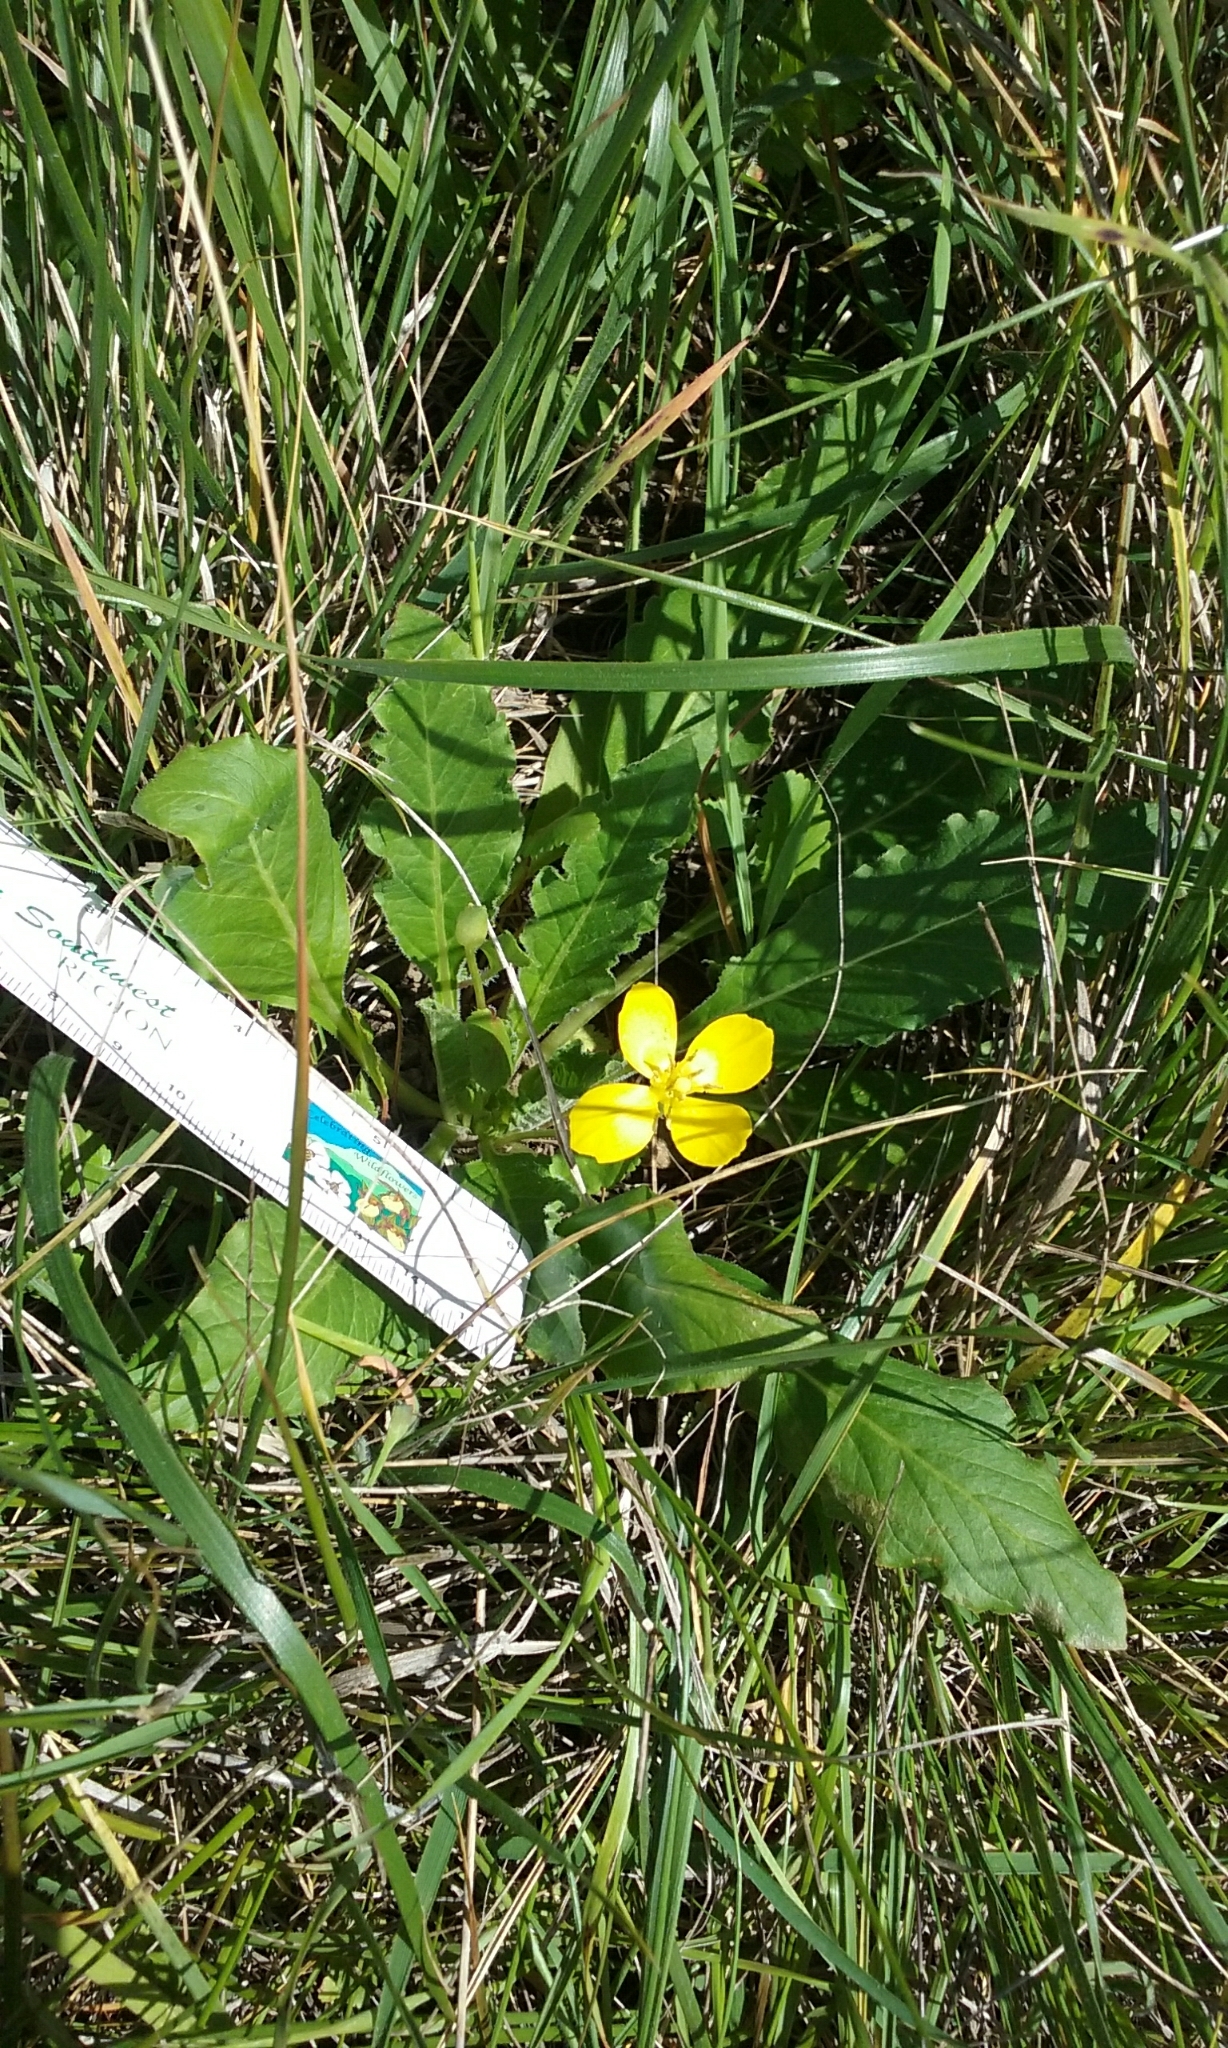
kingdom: Plantae
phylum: Tracheophyta
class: Magnoliopsida
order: Myrtales
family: Onagraceae
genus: Taraxia
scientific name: Taraxia ovata
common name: Goldeneggs
